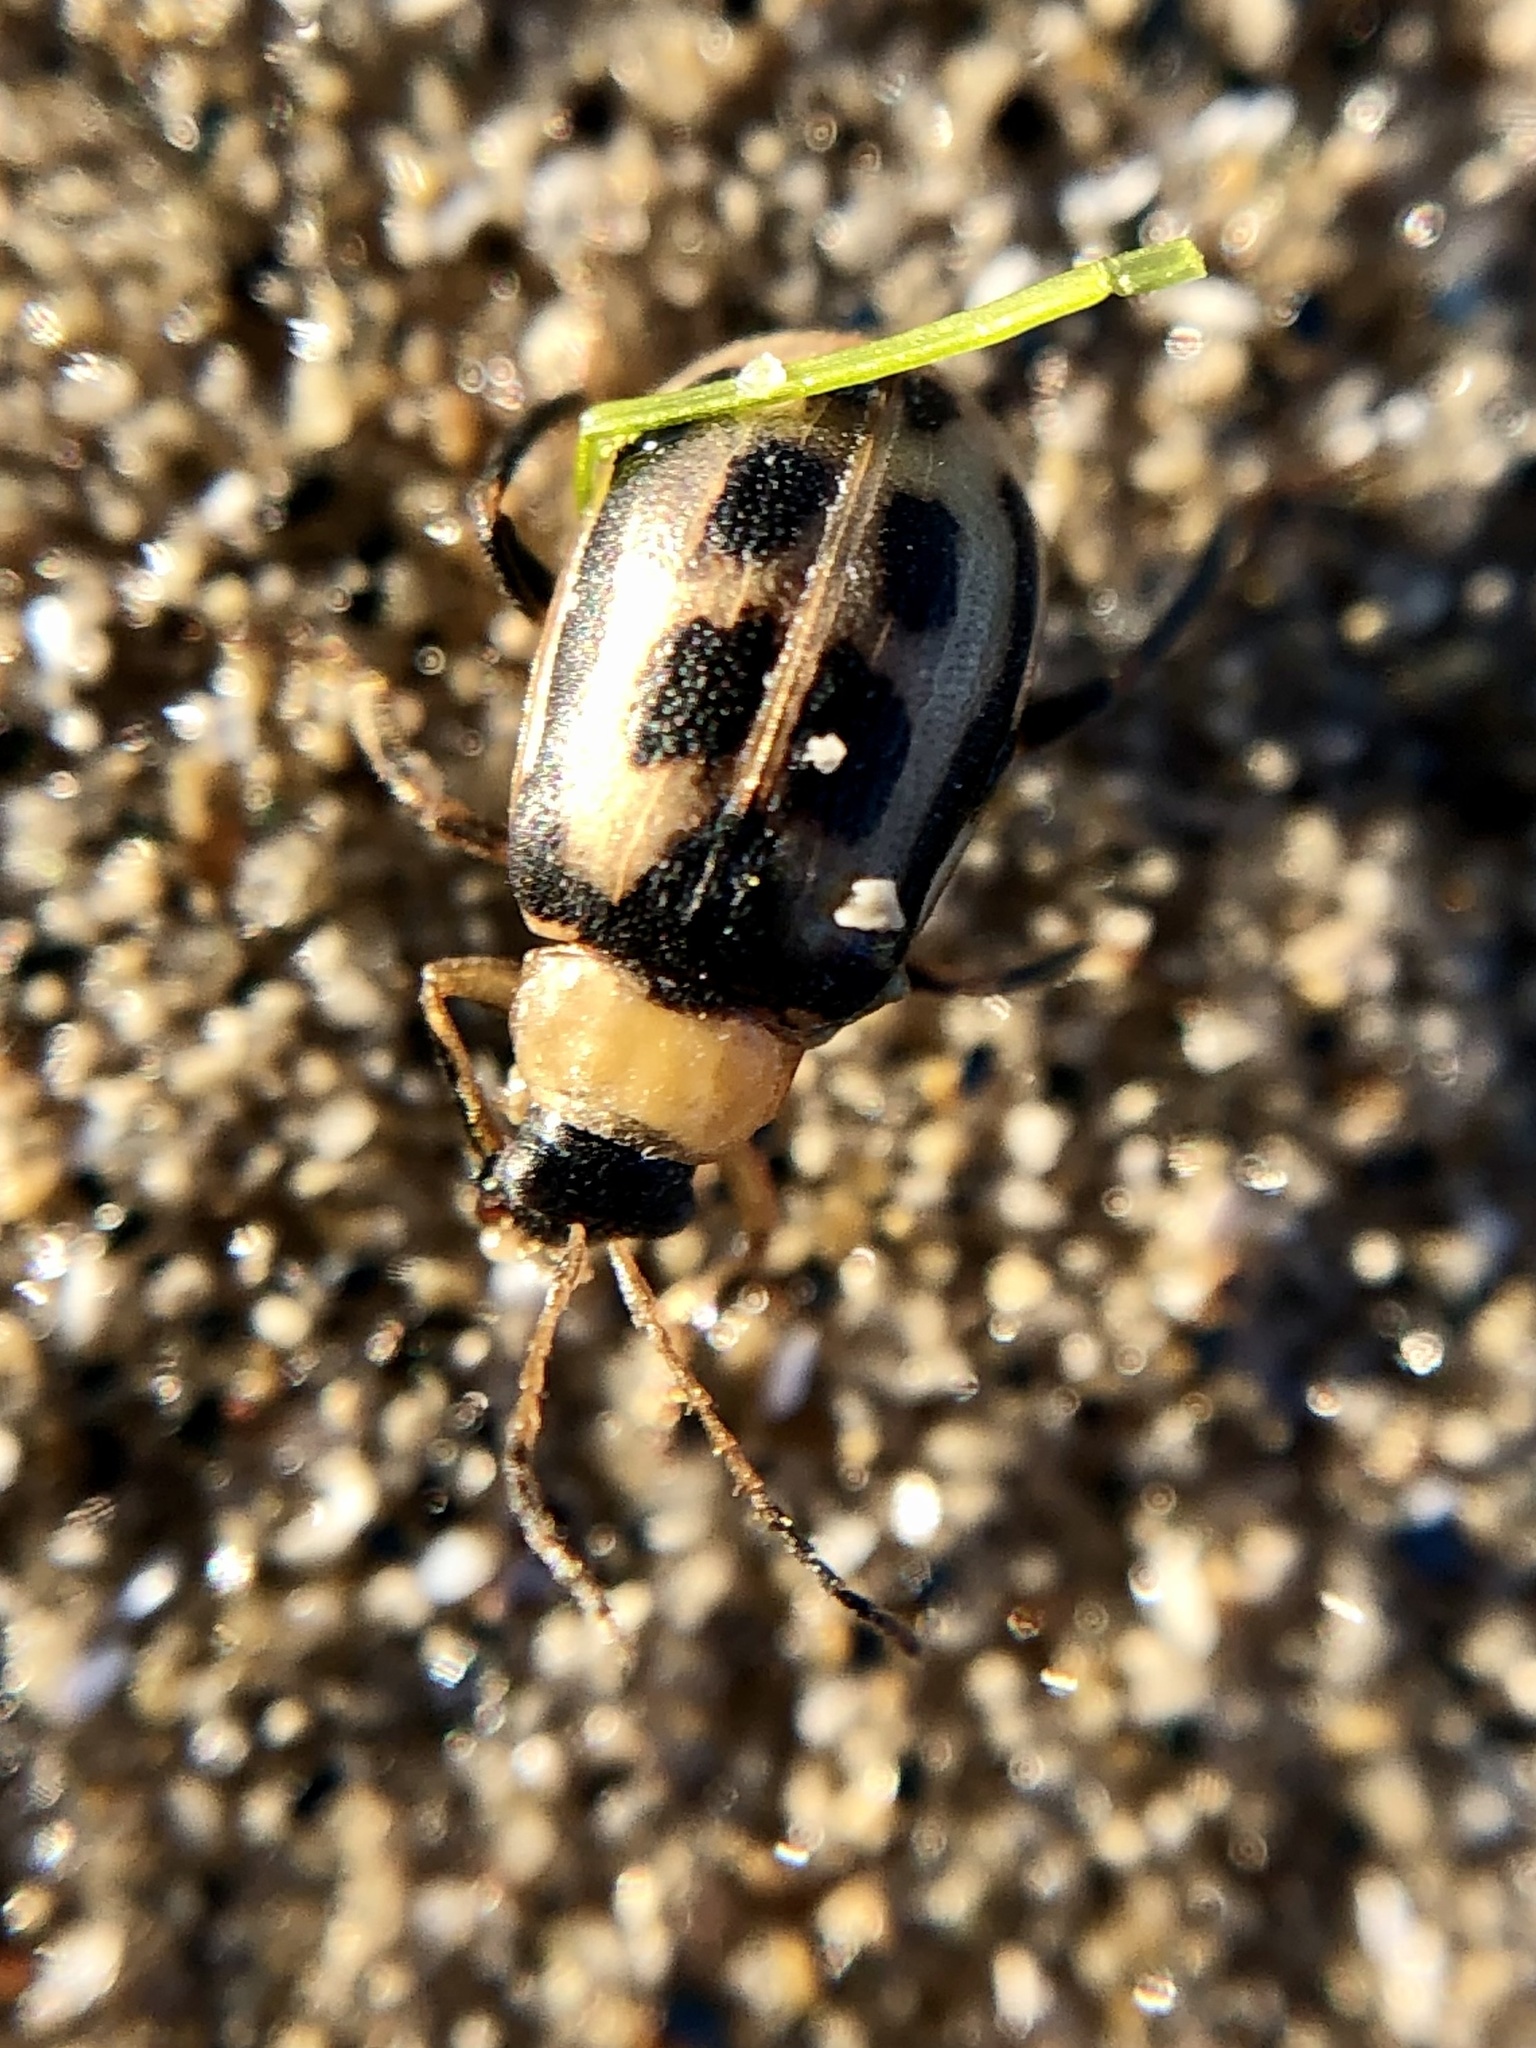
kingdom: Animalia
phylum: Arthropoda
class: Insecta
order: Coleoptera
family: Chrysomelidae
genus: Cerotoma
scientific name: Cerotoma trifurcata
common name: Bean leaf beetle
